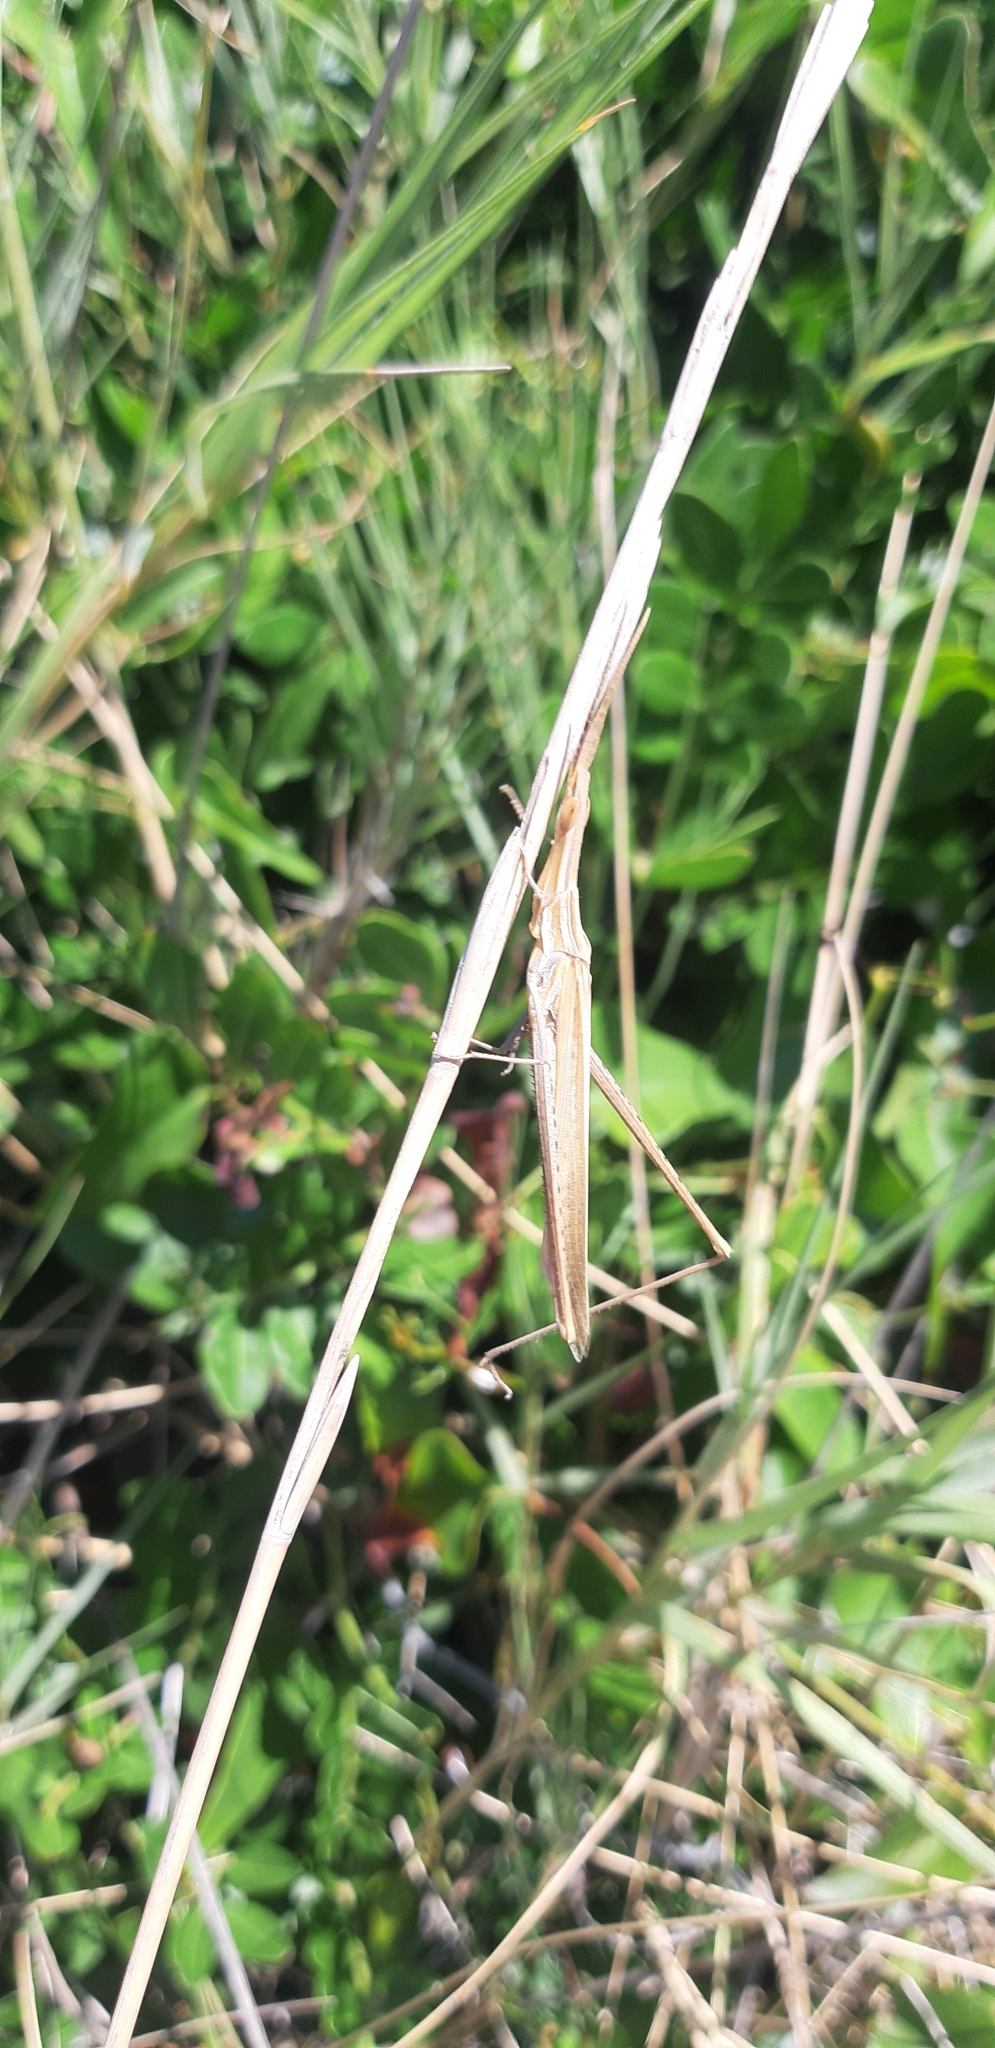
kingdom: Animalia
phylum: Arthropoda
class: Insecta
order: Orthoptera
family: Acrididae
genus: Acrida
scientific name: Acrida ungarica
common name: Common cone-headed grasshopper
